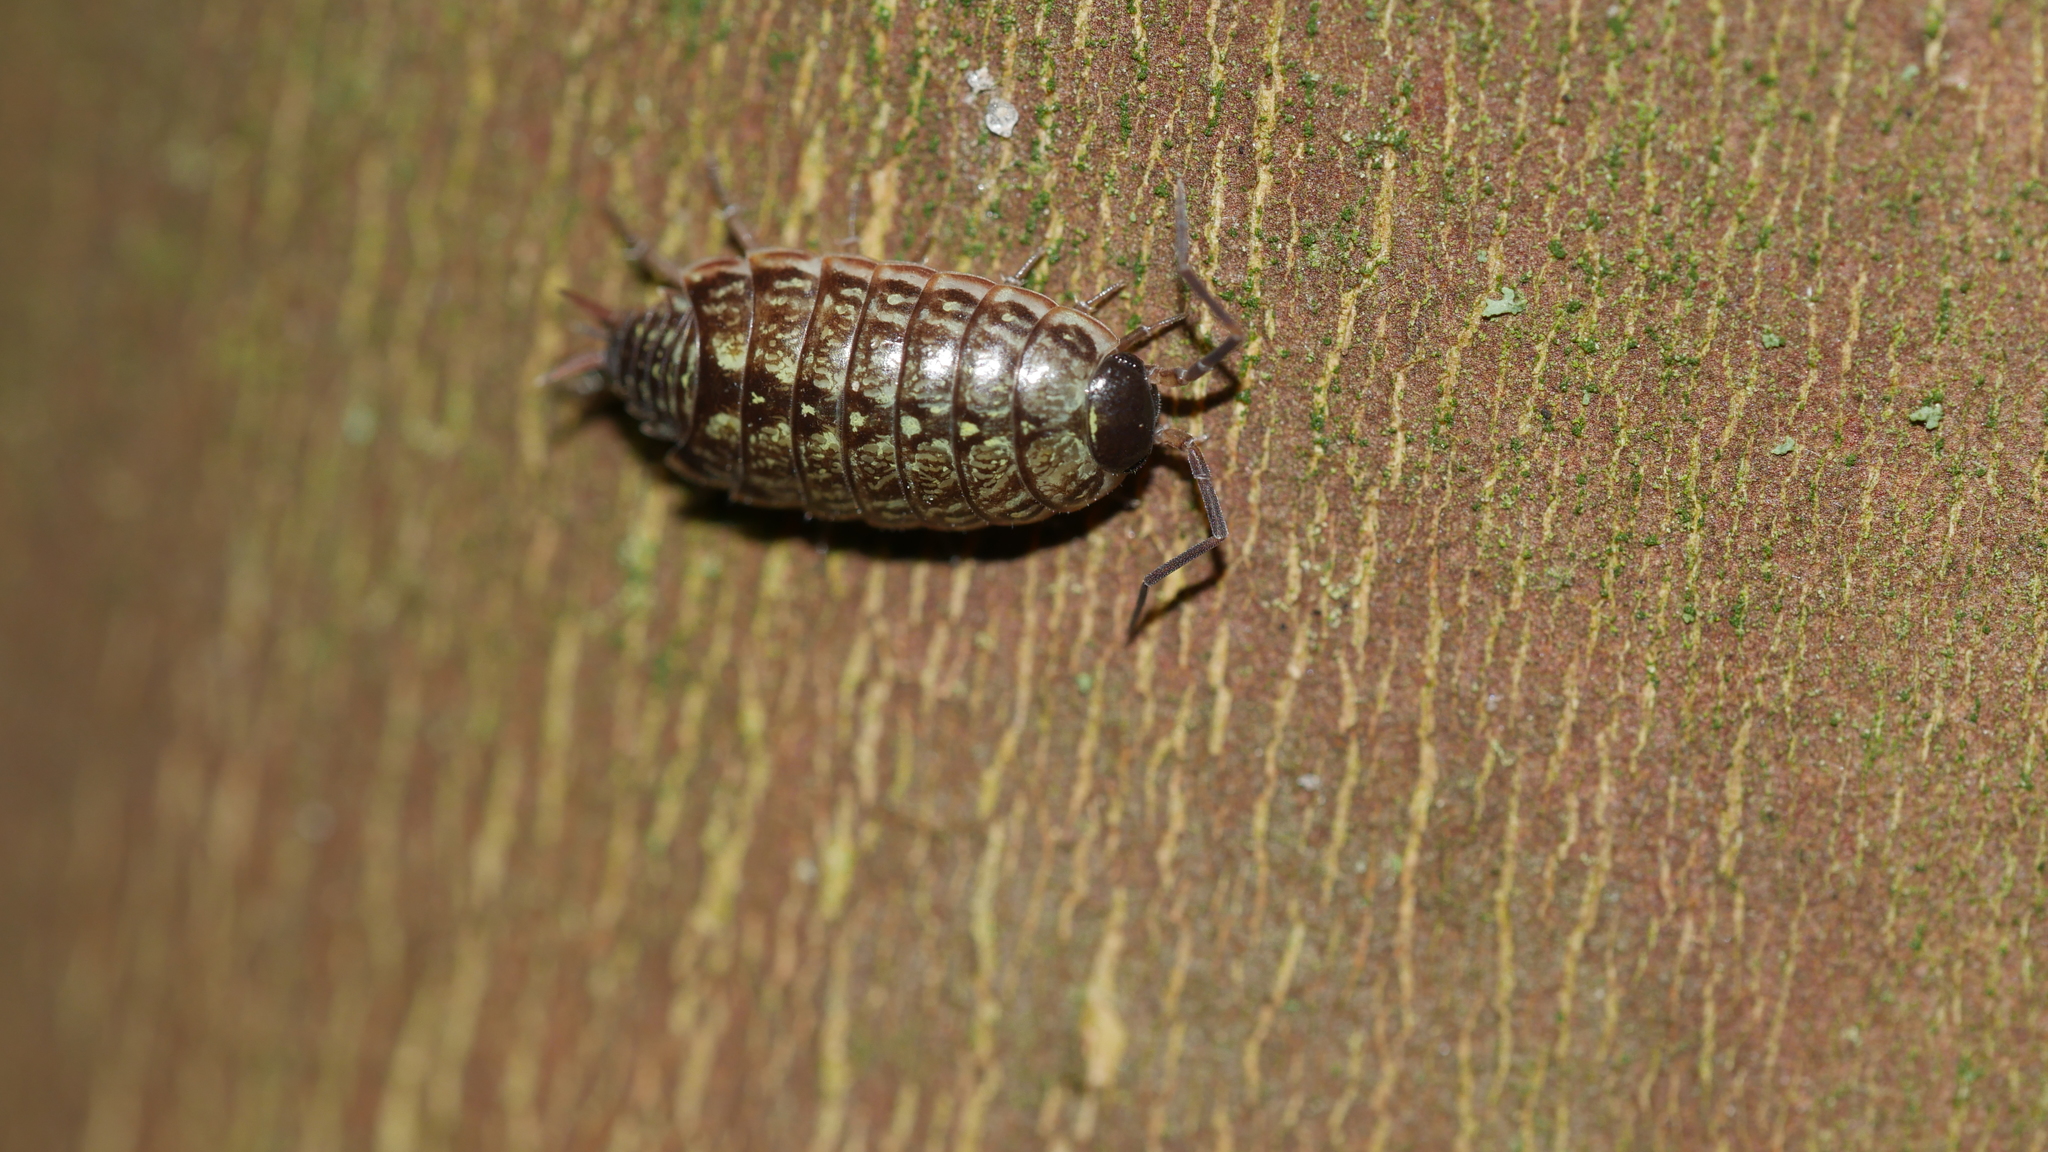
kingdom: Animalia
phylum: Arthropoda
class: Malacostraca
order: Isopoda
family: Philosciidae
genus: Philoscia
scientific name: Philoscia muscorum
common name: Common striped woodlouse
